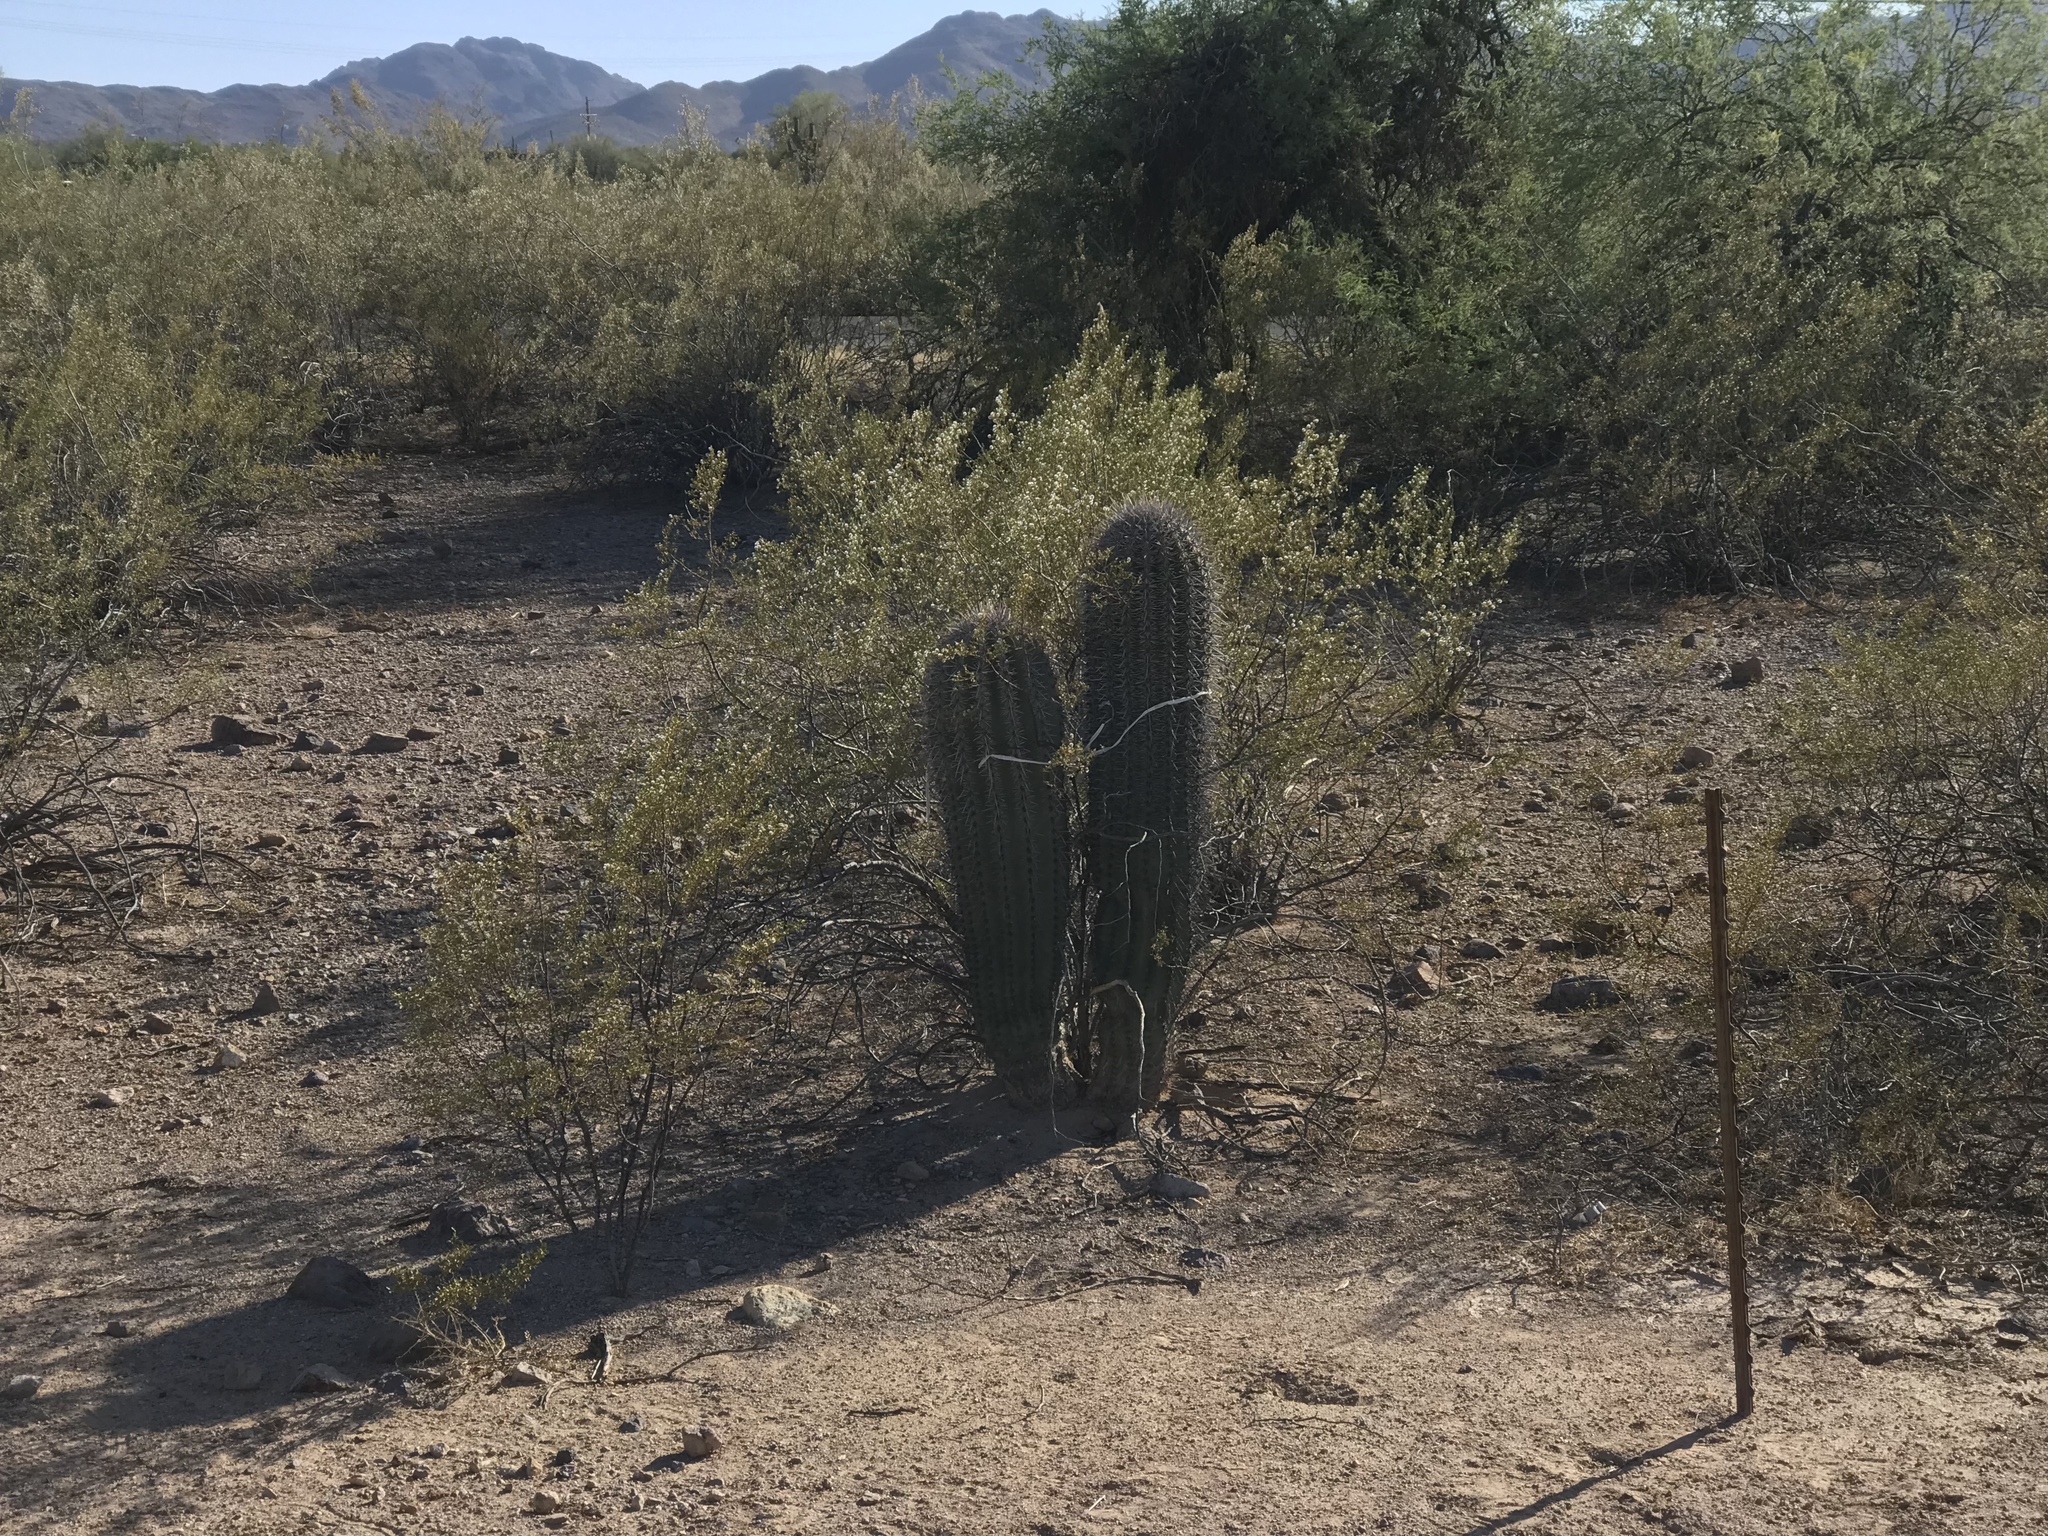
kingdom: Plantae
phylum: Tracheophyta
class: Magnoliopsida
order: Caryophyllales
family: Cactaceae
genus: Carnegiea
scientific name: Carnegiea gigantea
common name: Saguaro
